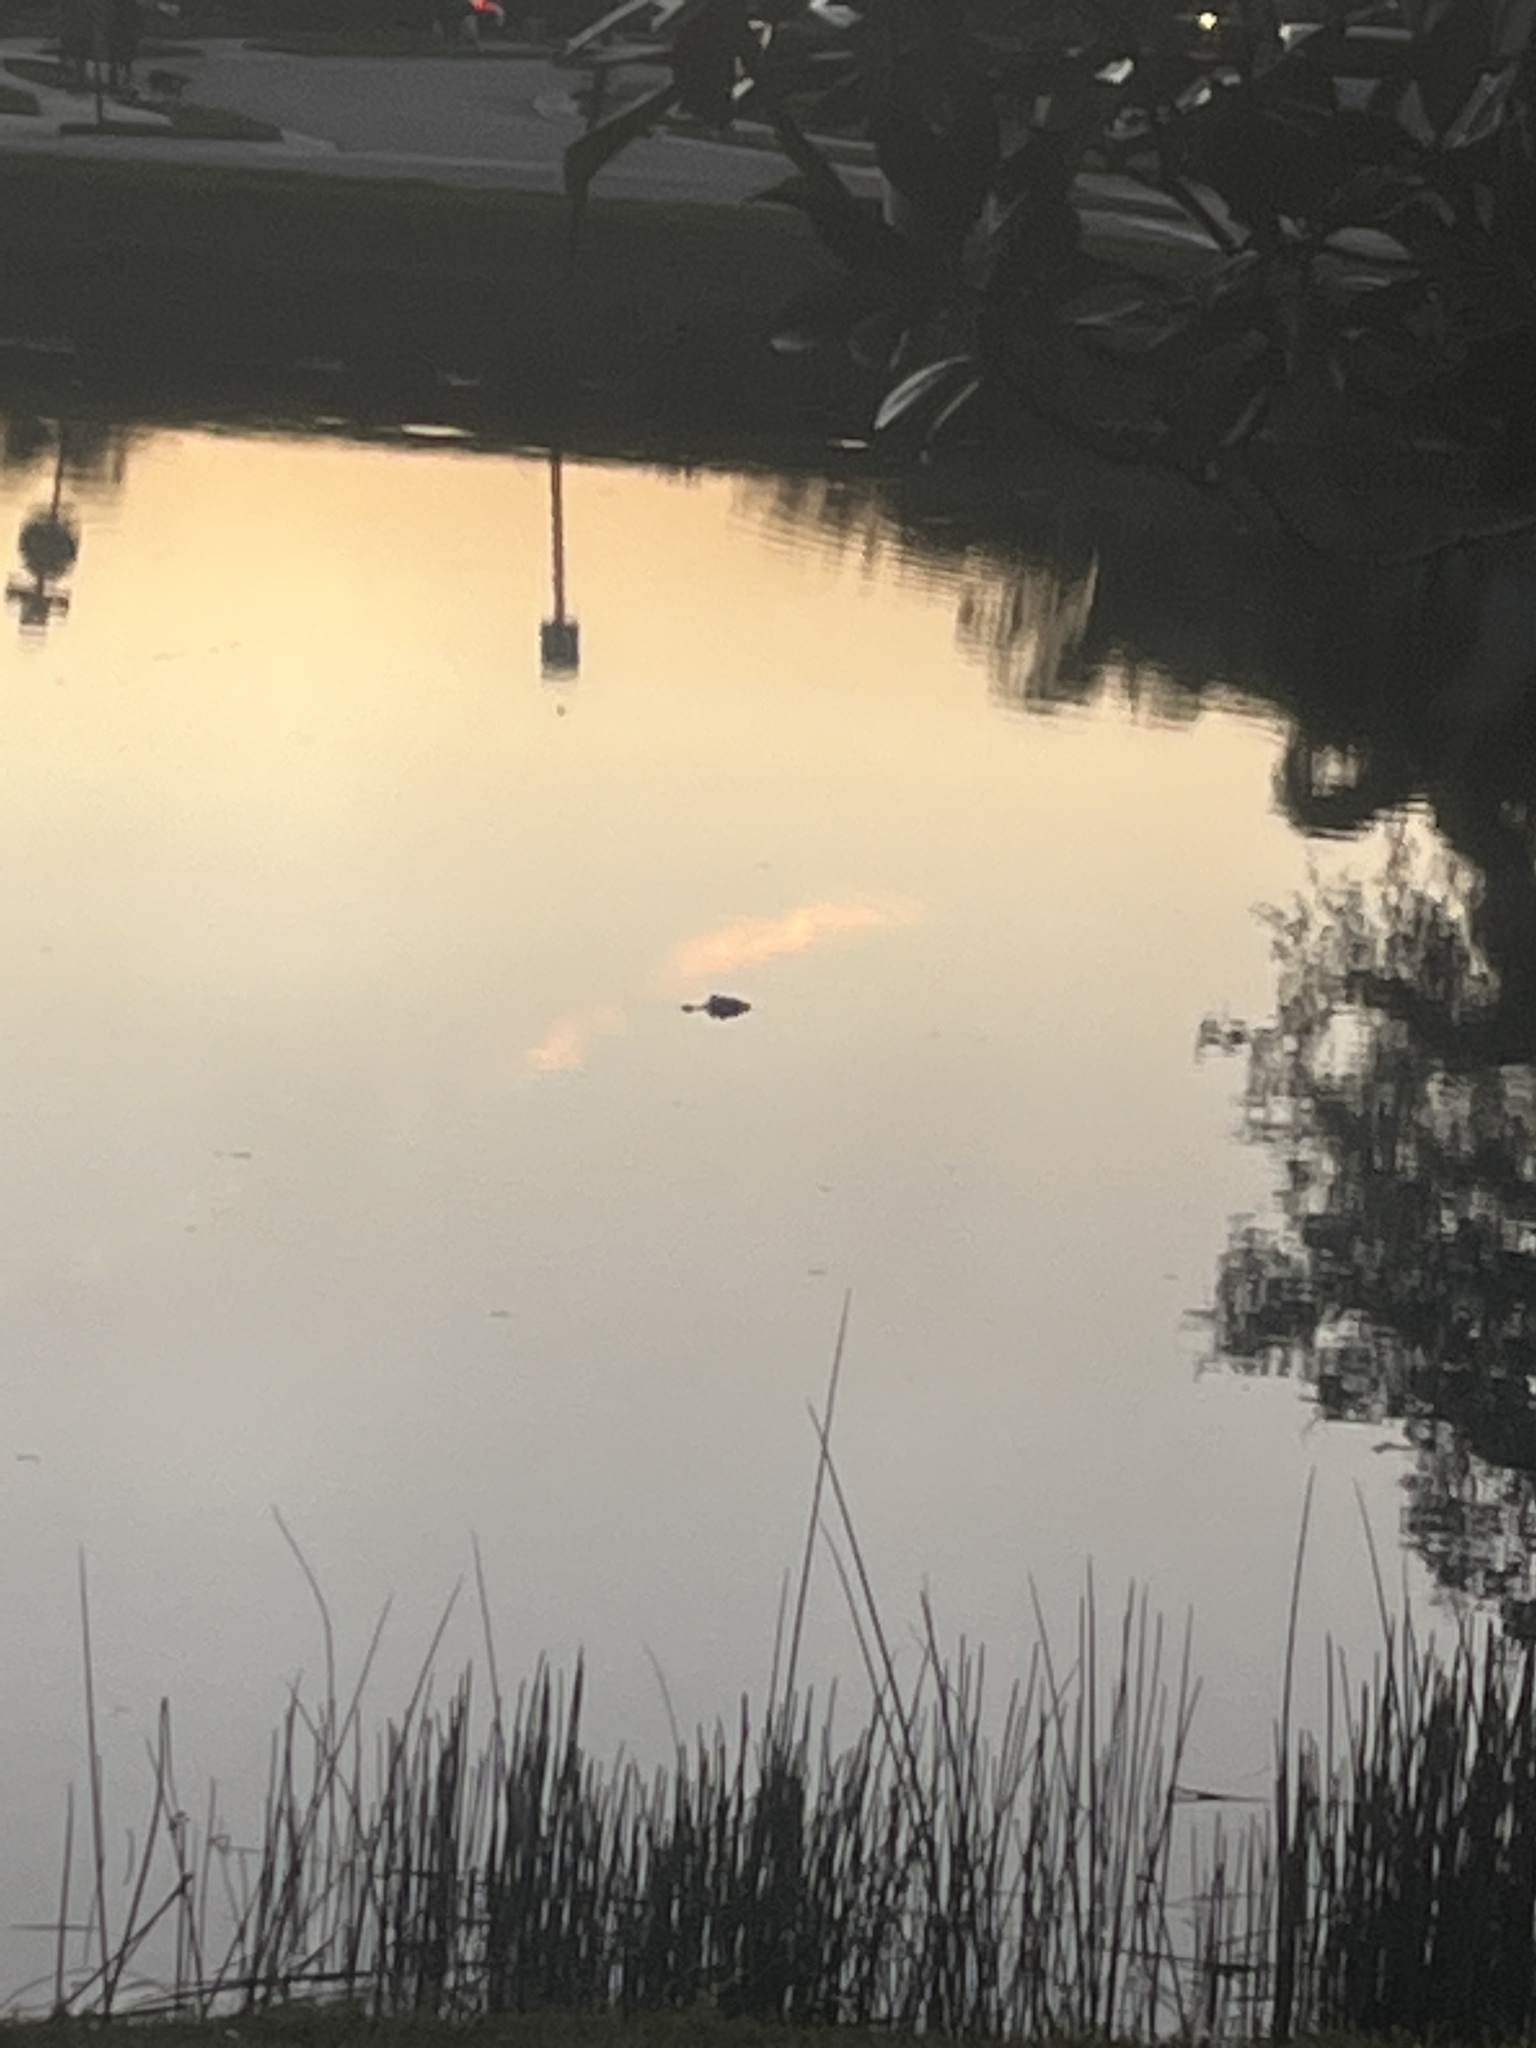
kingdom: Animalia
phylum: Chordata
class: Crocodylia
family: Alligatoridae
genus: Alligator
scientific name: Alligator mississippiensis
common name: American alligator
